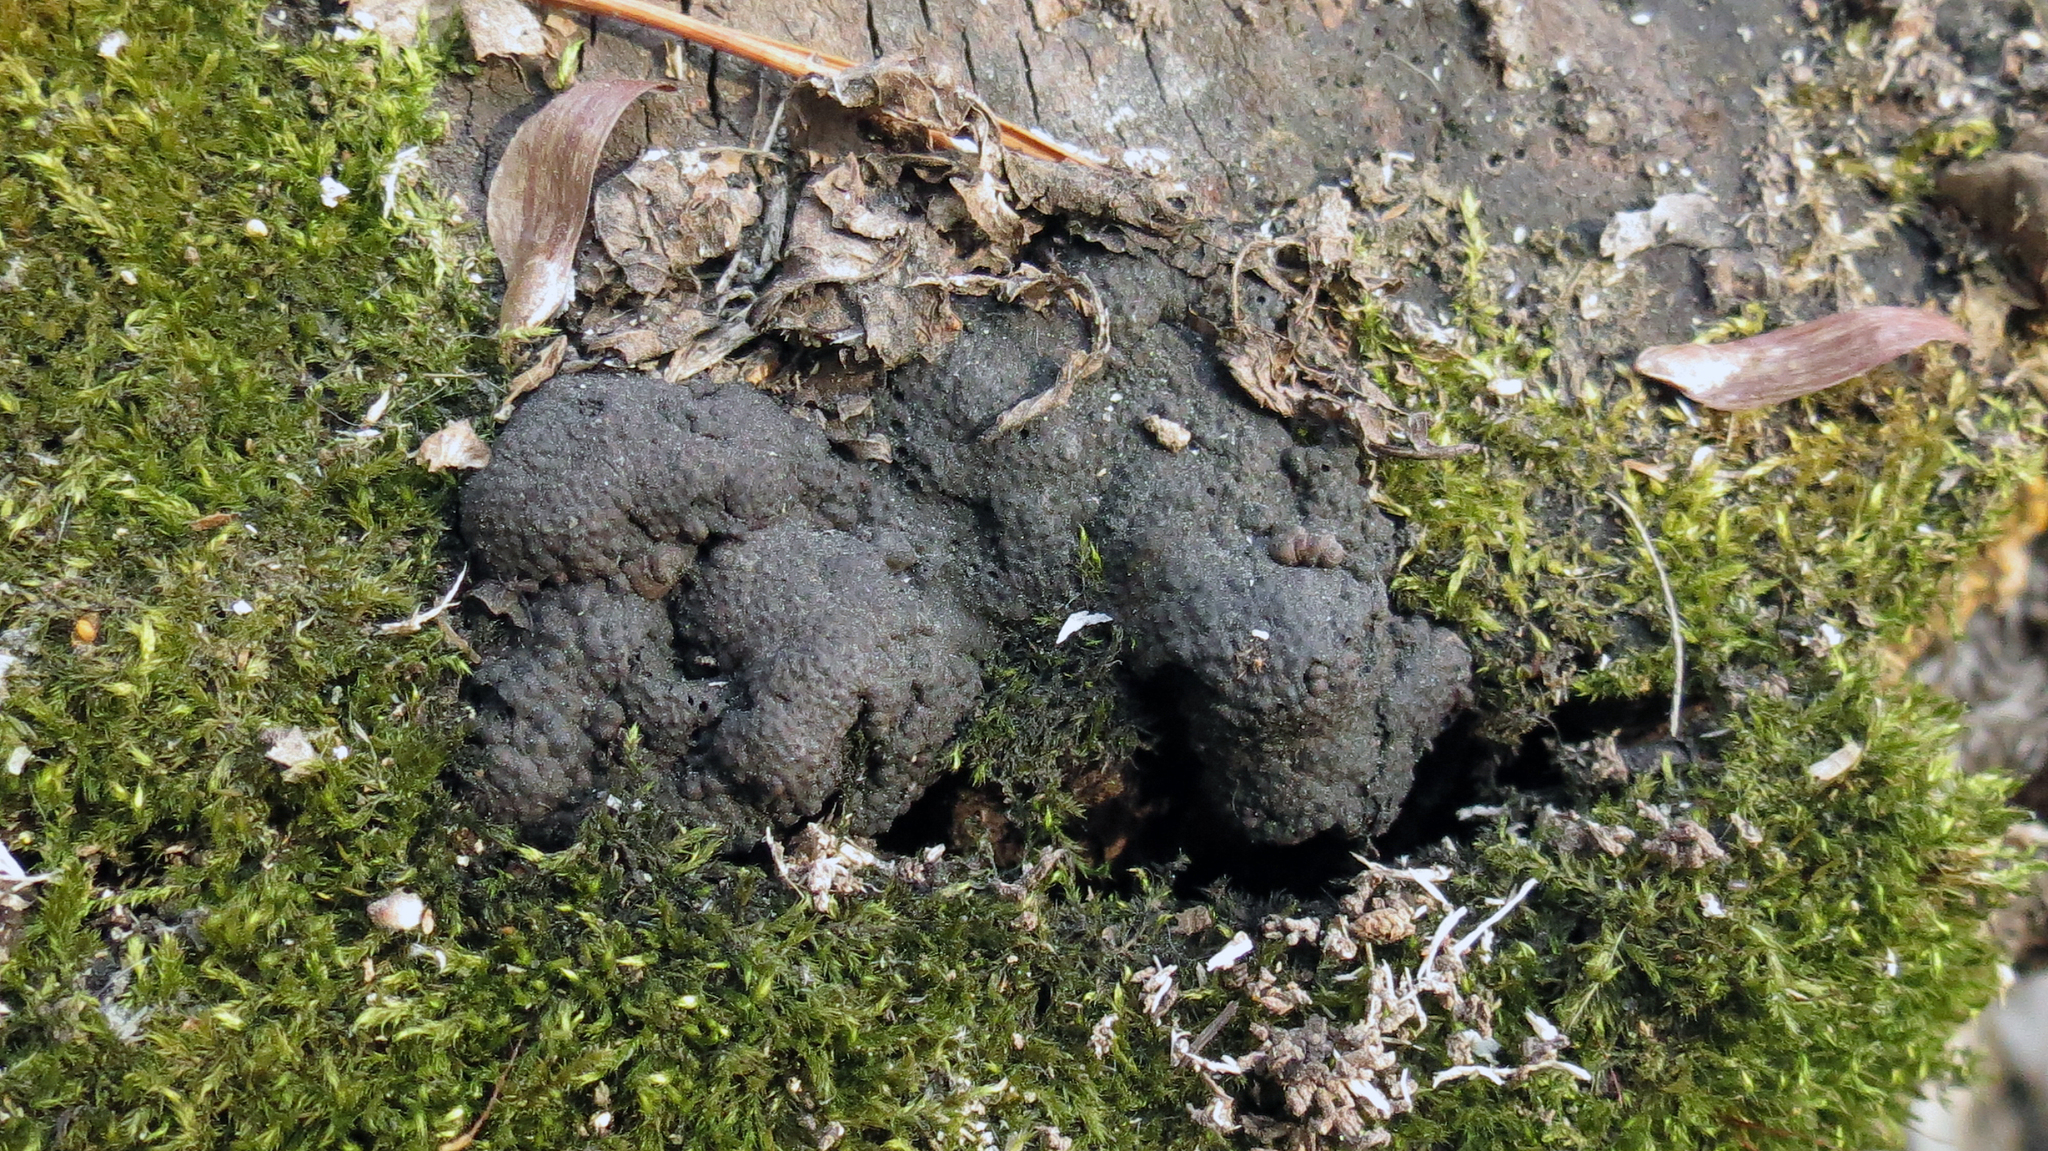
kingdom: Fungi
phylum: Ascomycota
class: Sordariomycetes
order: Xylariales
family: Hypoxylaceae
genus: Jackrogersella
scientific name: Jackrogersella multiformis
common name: Birch woodwart
